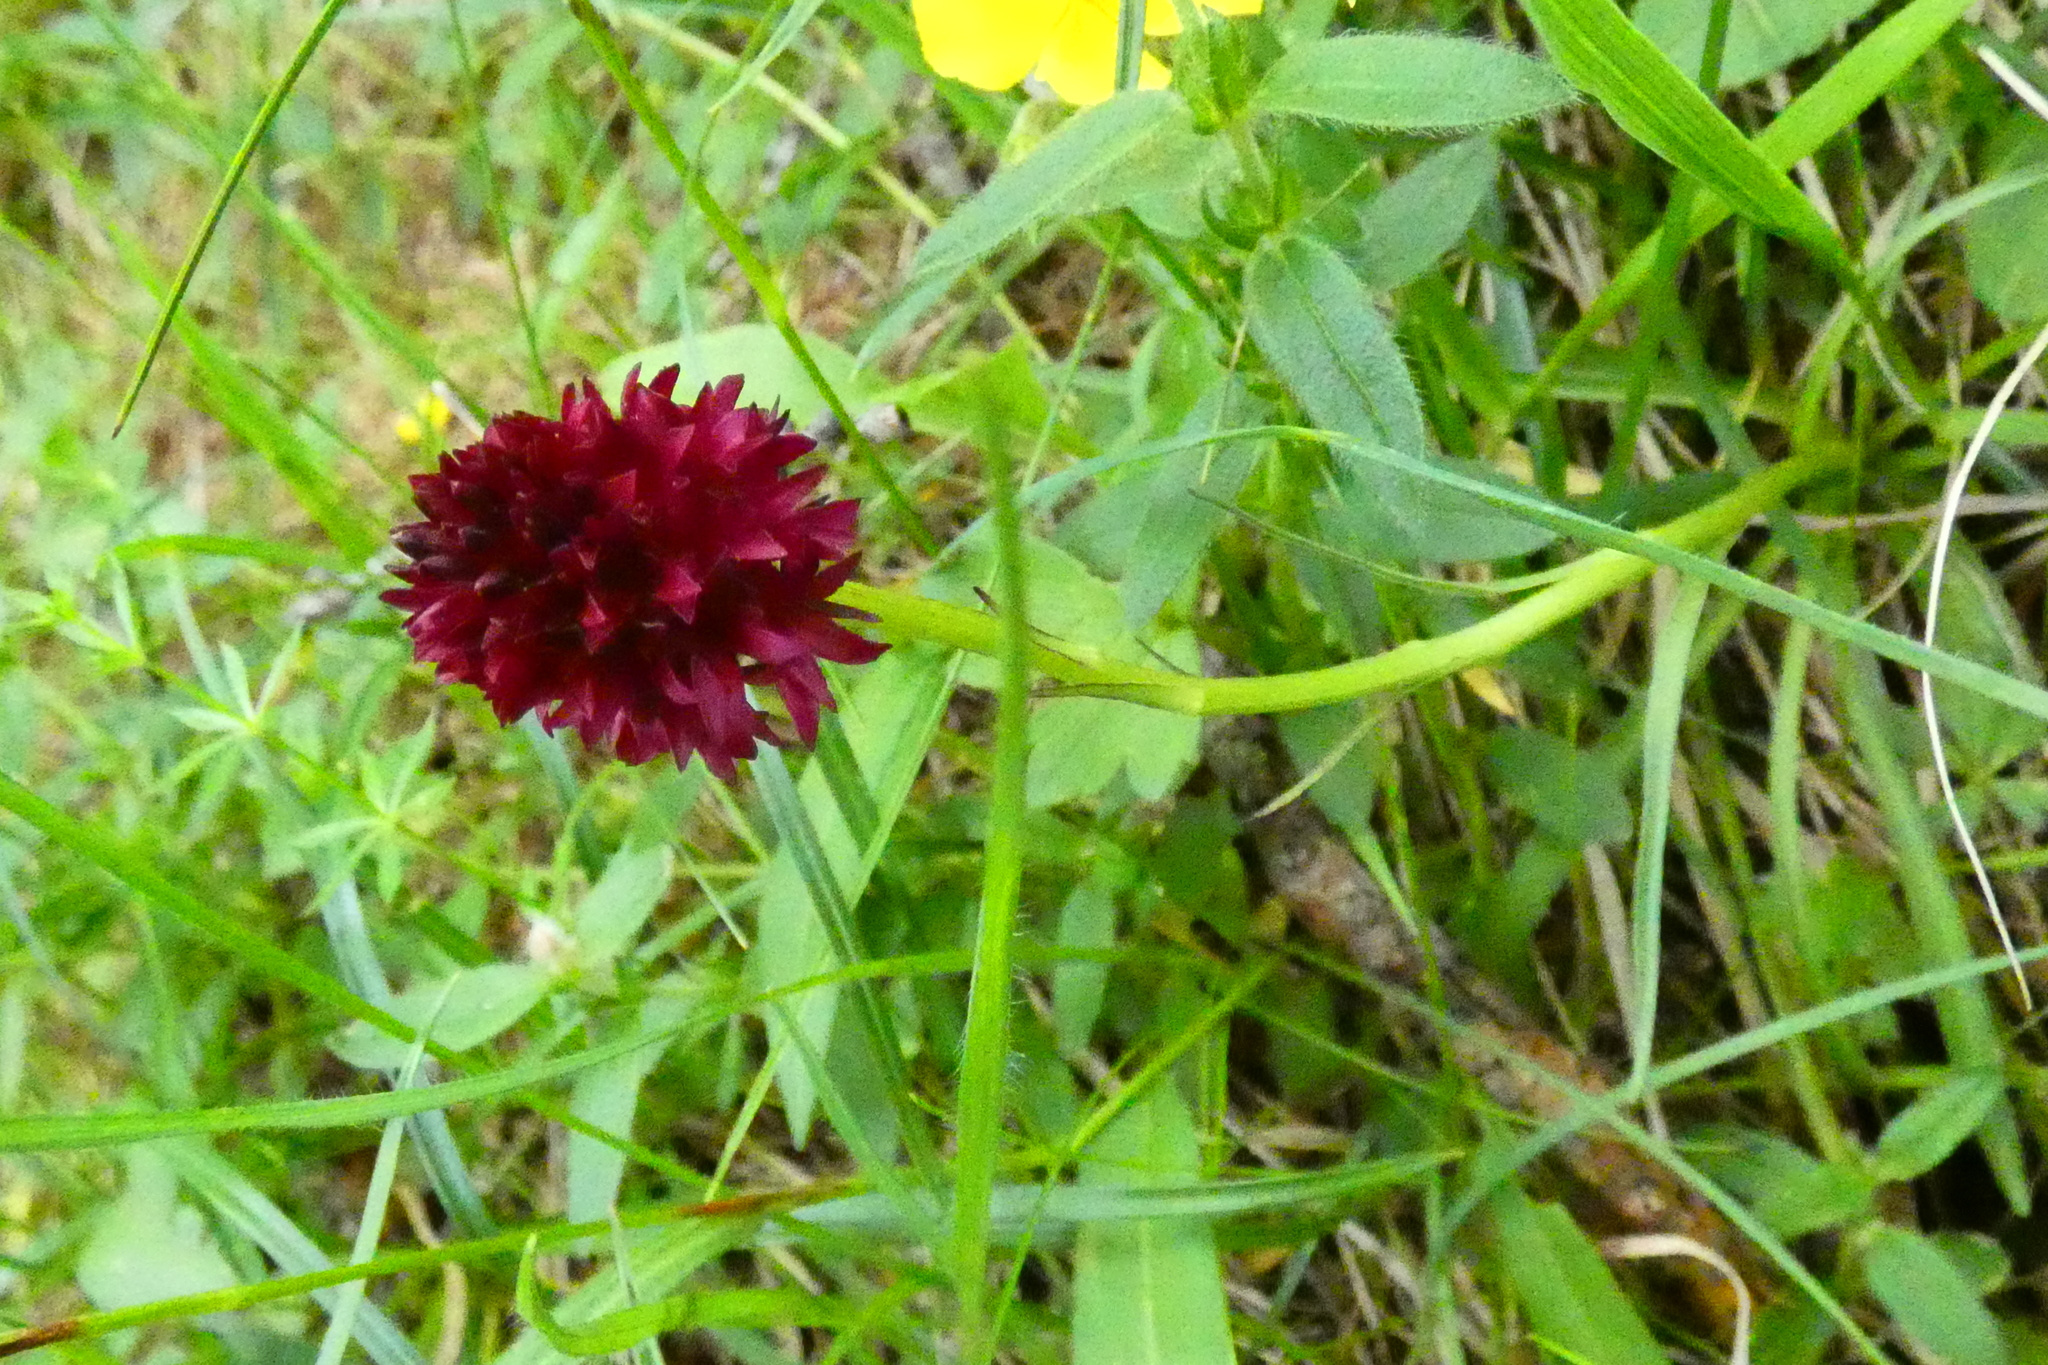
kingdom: Plantae
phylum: Tracheophyta
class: Liliopsida
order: Asparagales
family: Orchidaceae
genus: Gymnadenia
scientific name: Gymnadenia rhellicani
